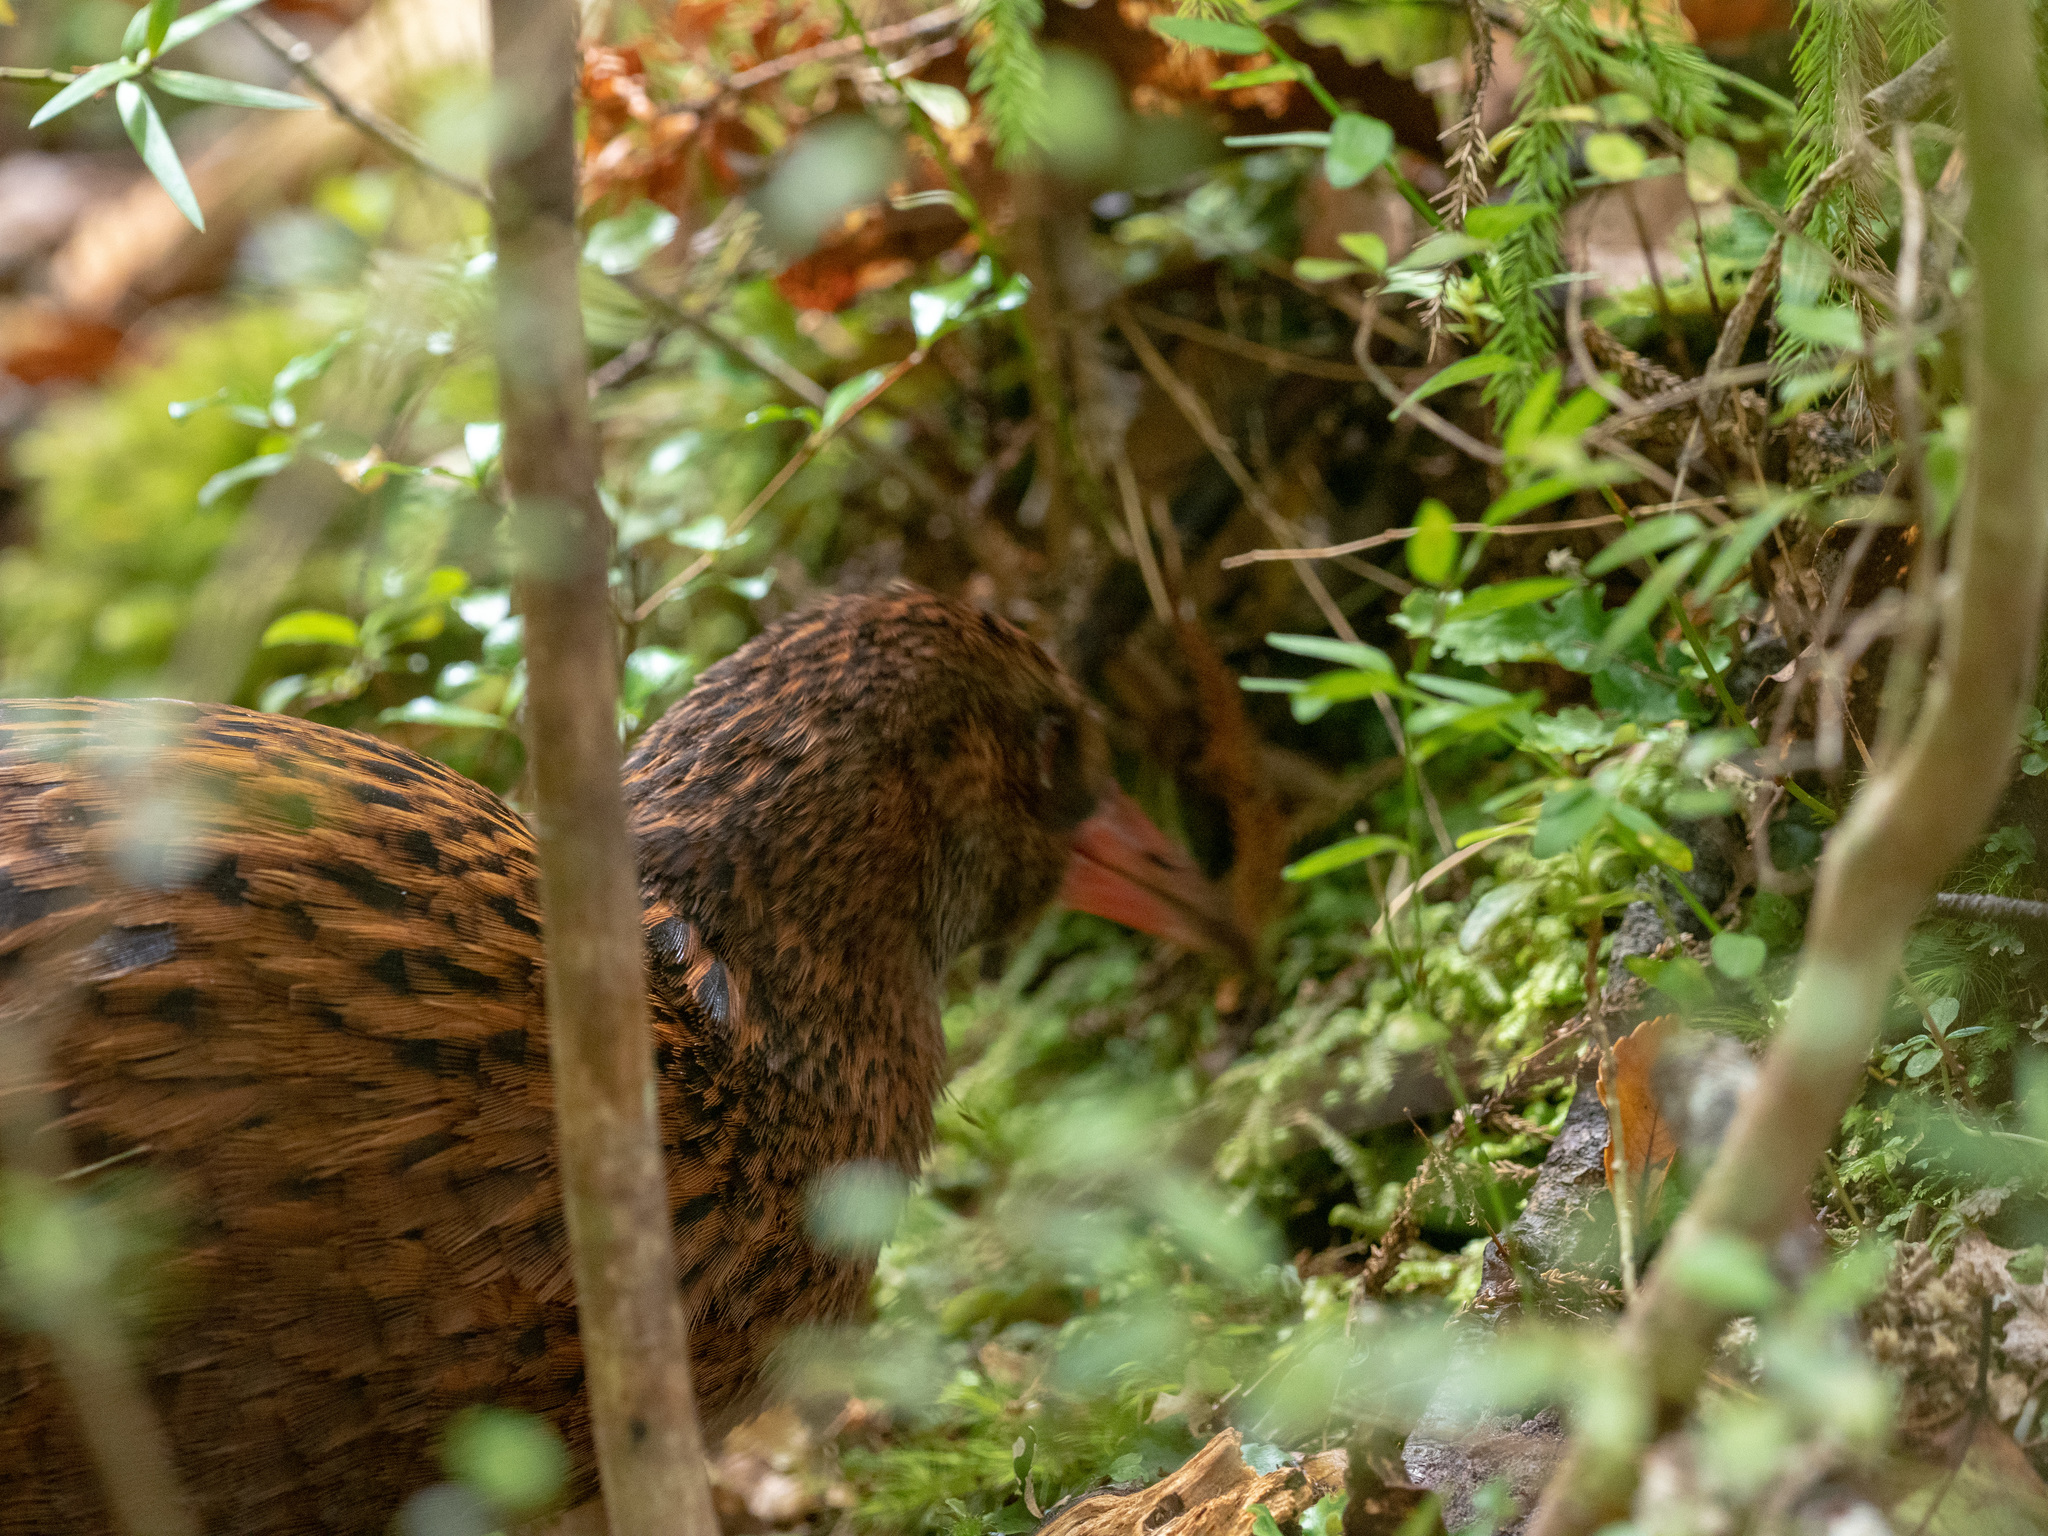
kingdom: Animalia
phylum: Chordata
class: Aves
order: Gruiformes
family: Rallidae
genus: Gallirallus
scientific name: Gallirallus australis
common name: Weka
